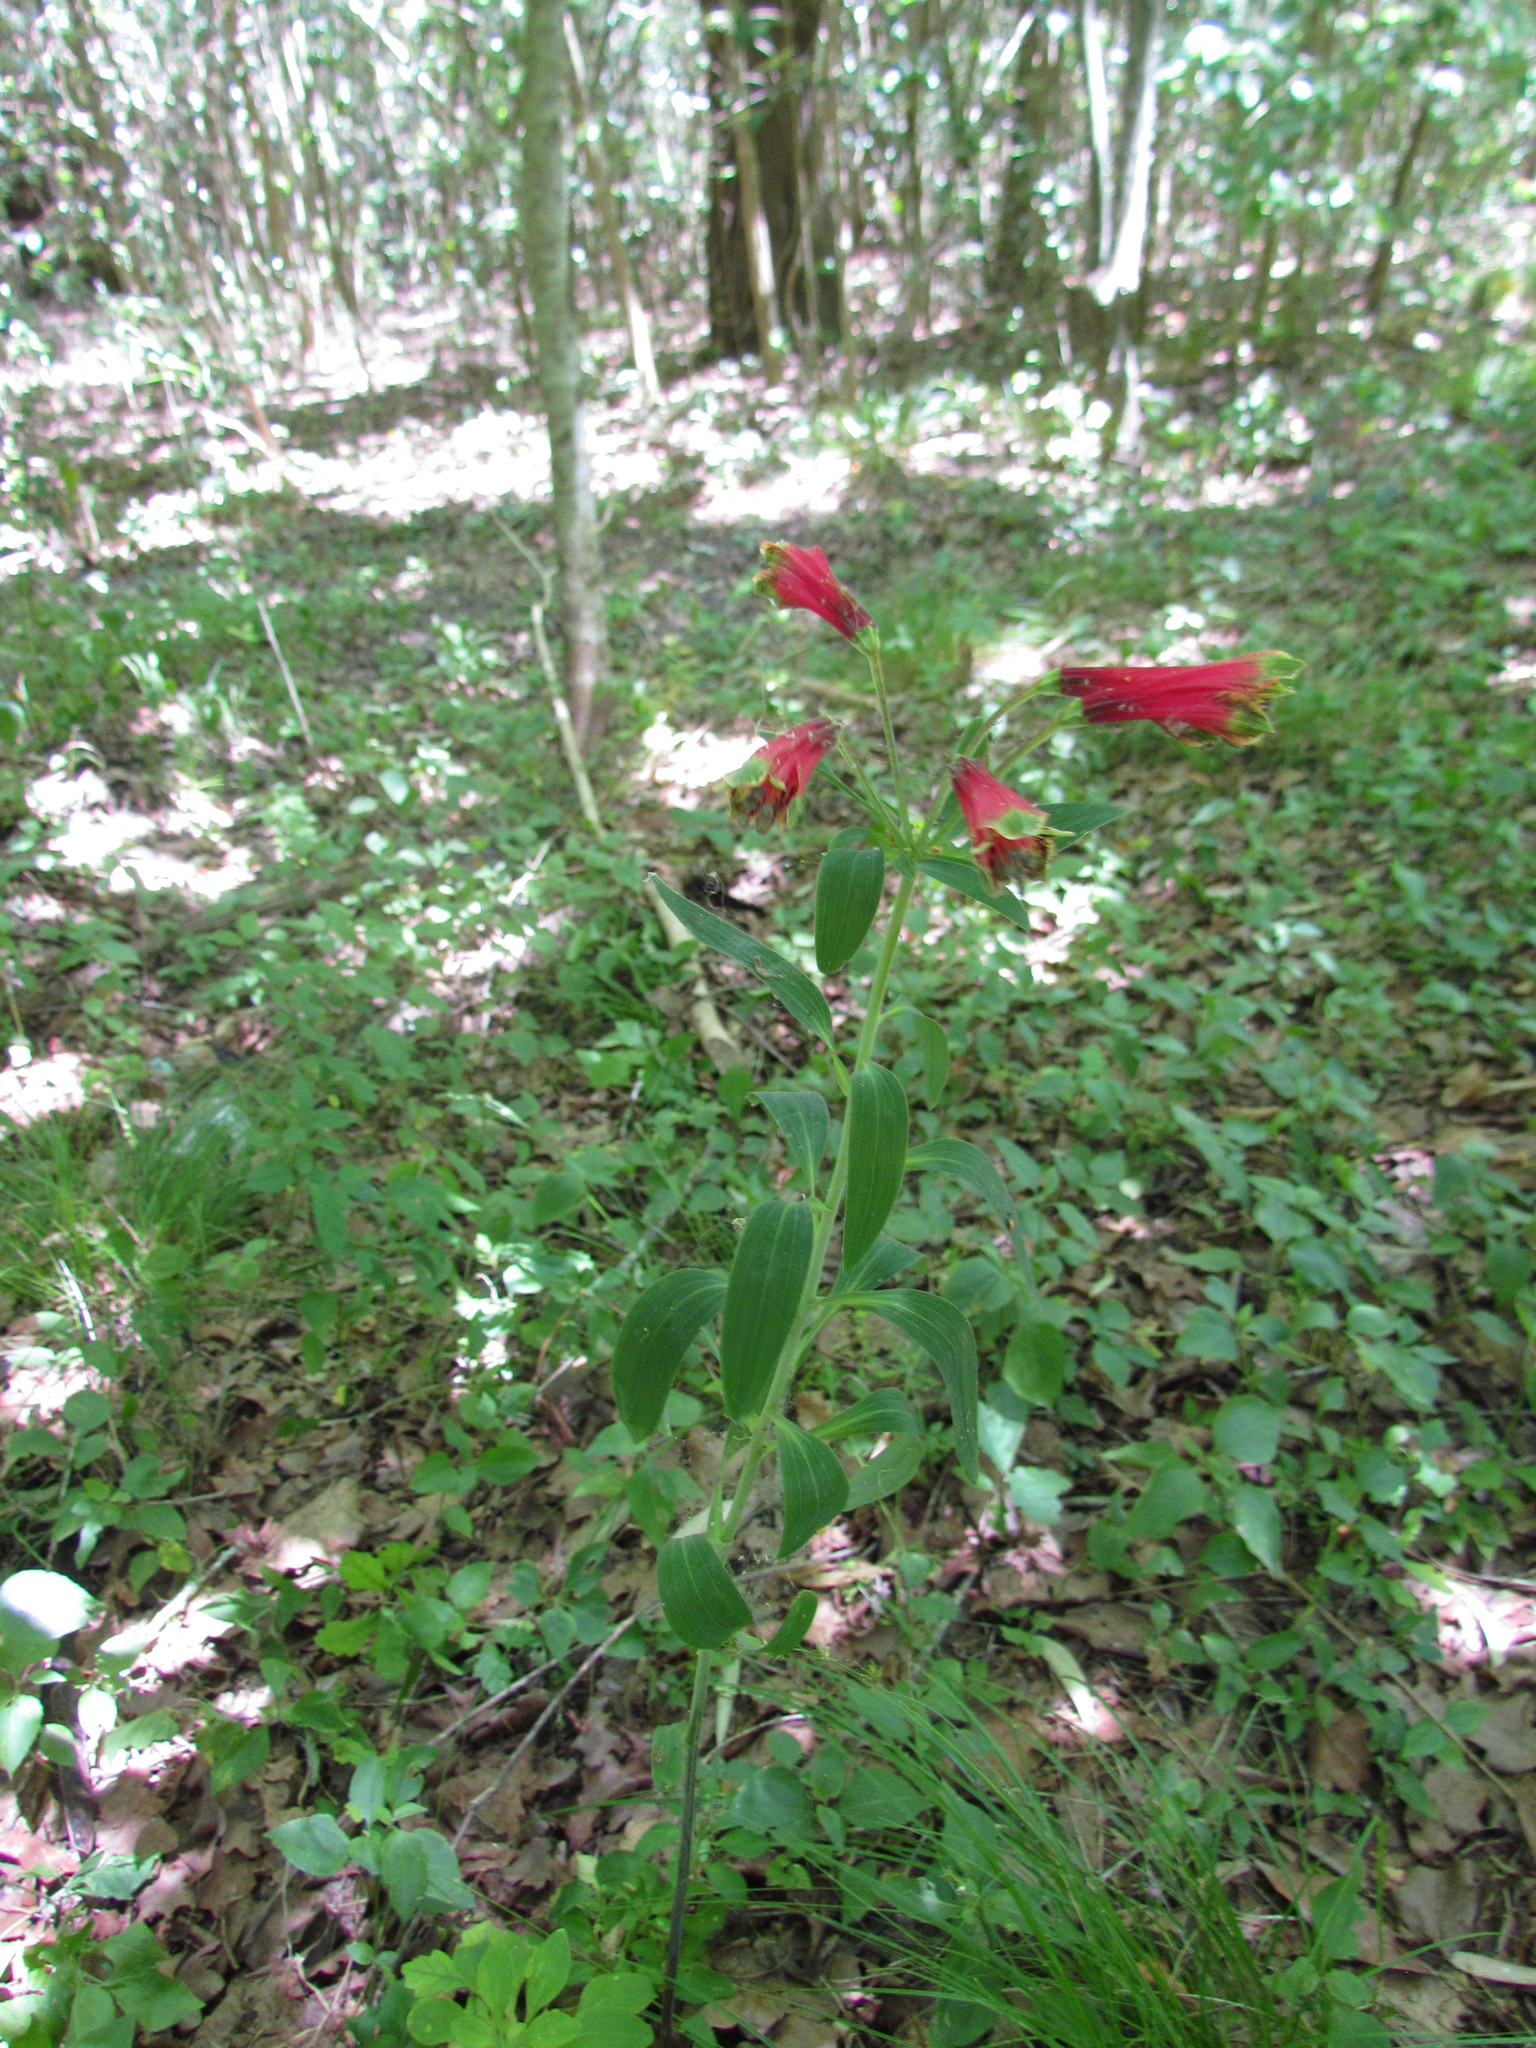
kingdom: Plantae
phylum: Tracheophyta
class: Liliopsida
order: Liliales
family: Alstroemeriaceae
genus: Alstroemeria
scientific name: Alstroemeria psittacina
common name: Peruvian-lily
